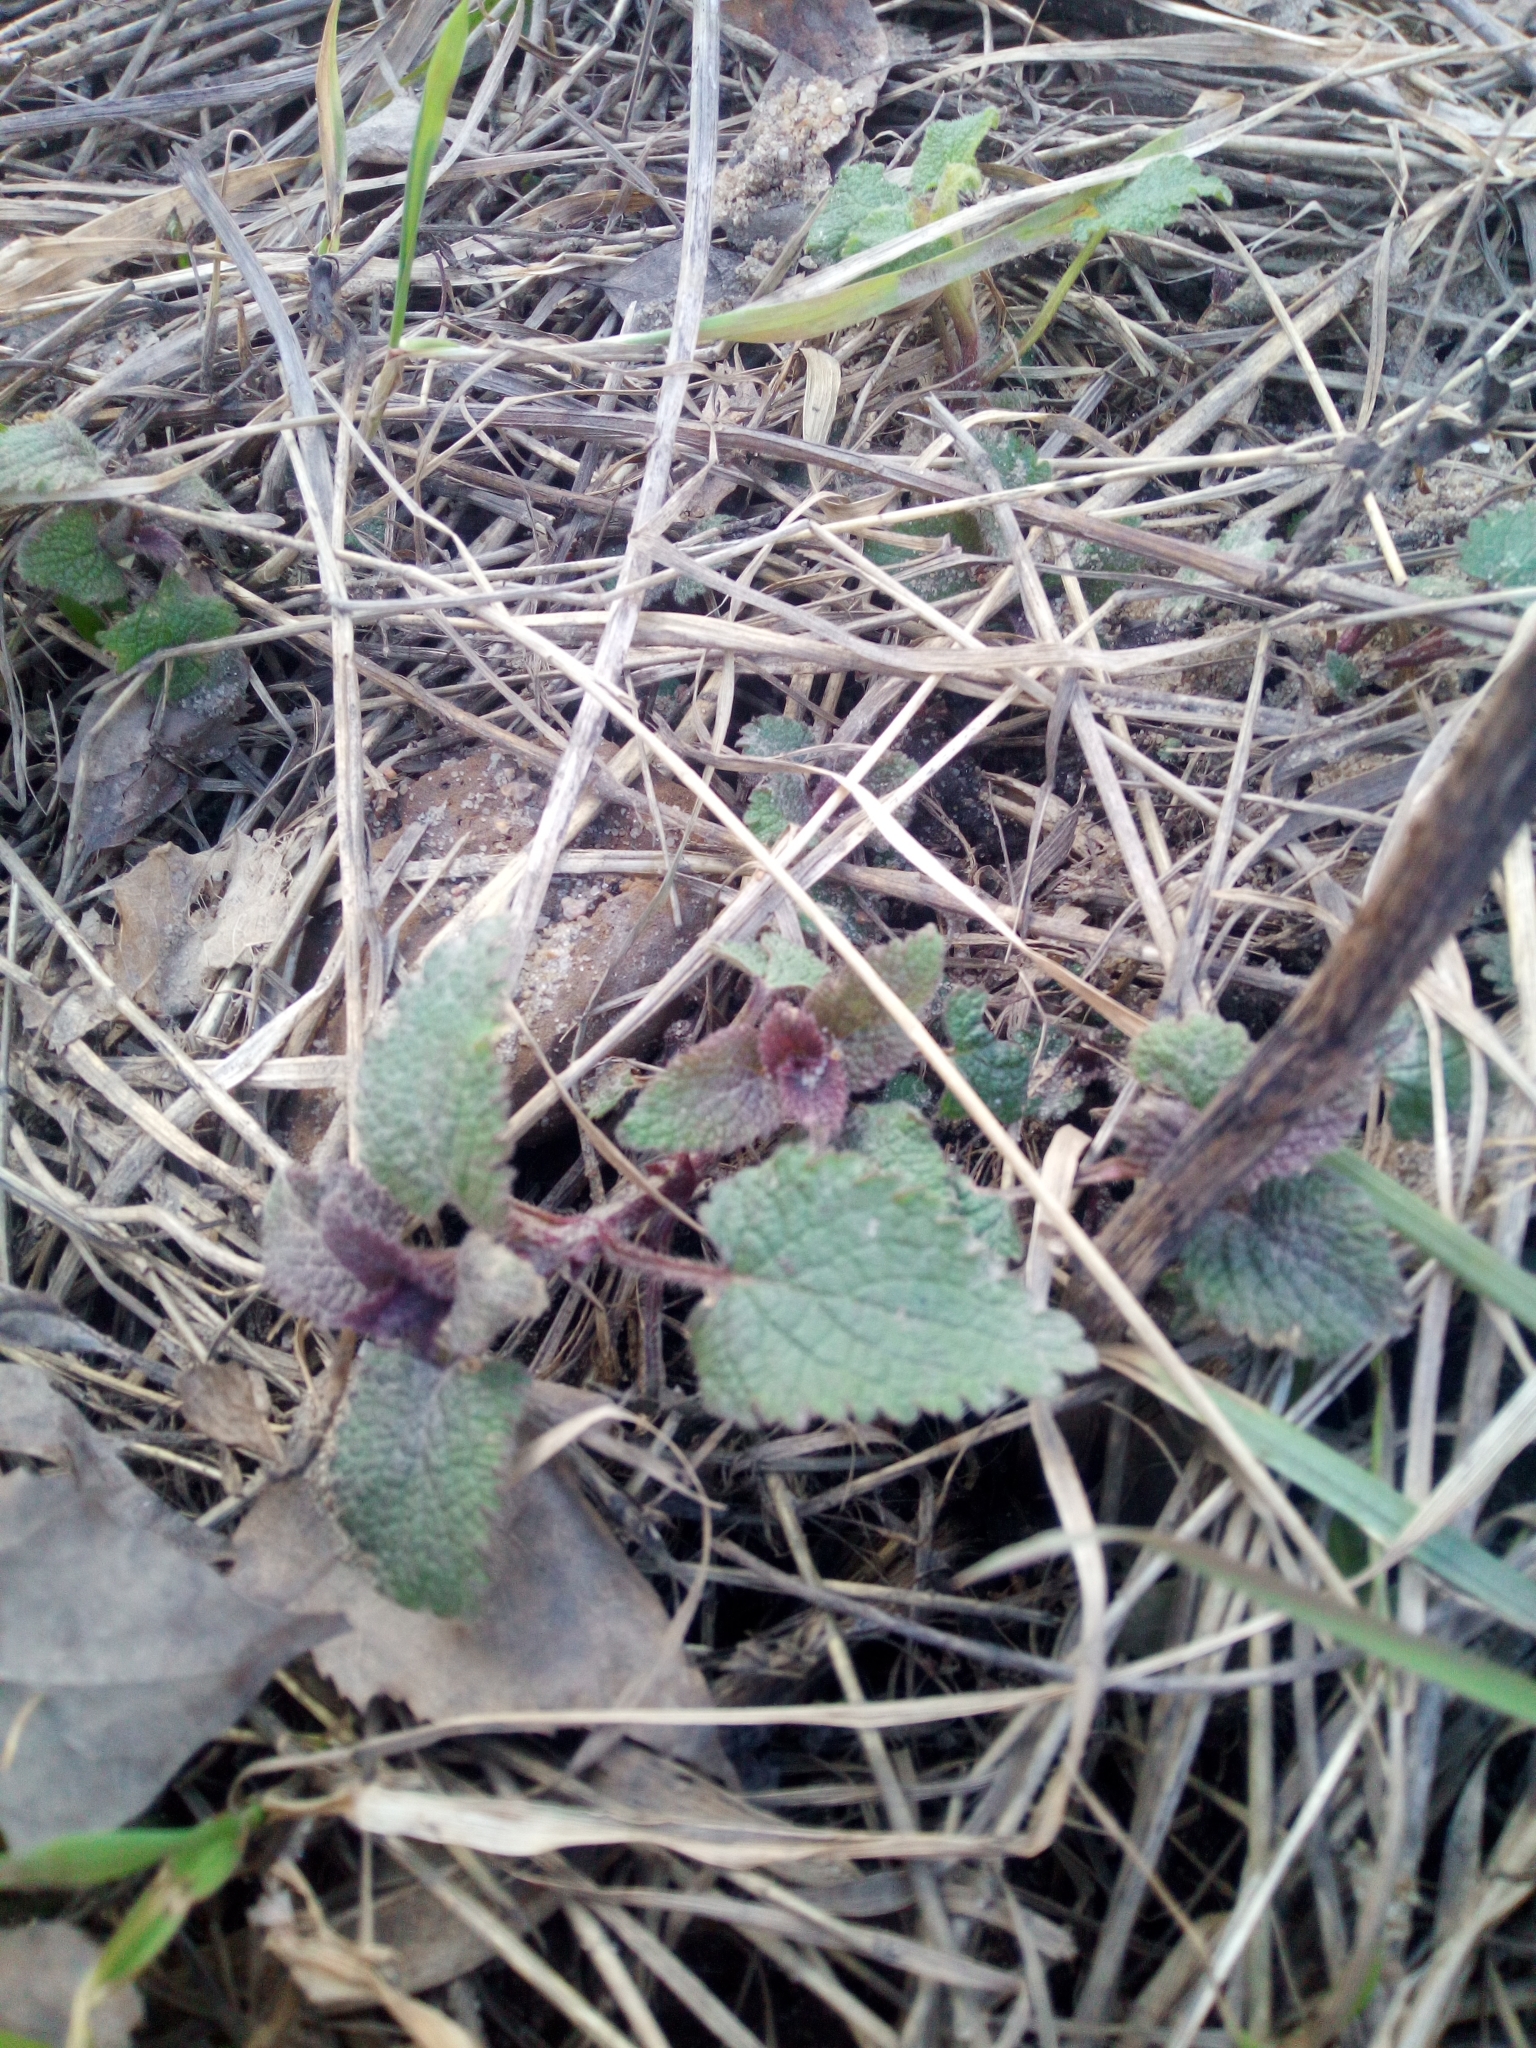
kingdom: Plantae
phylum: Tracheophyta
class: Magnoliopsida
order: Lamiales
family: Lamiaceae
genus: Lamium
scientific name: Lamium
